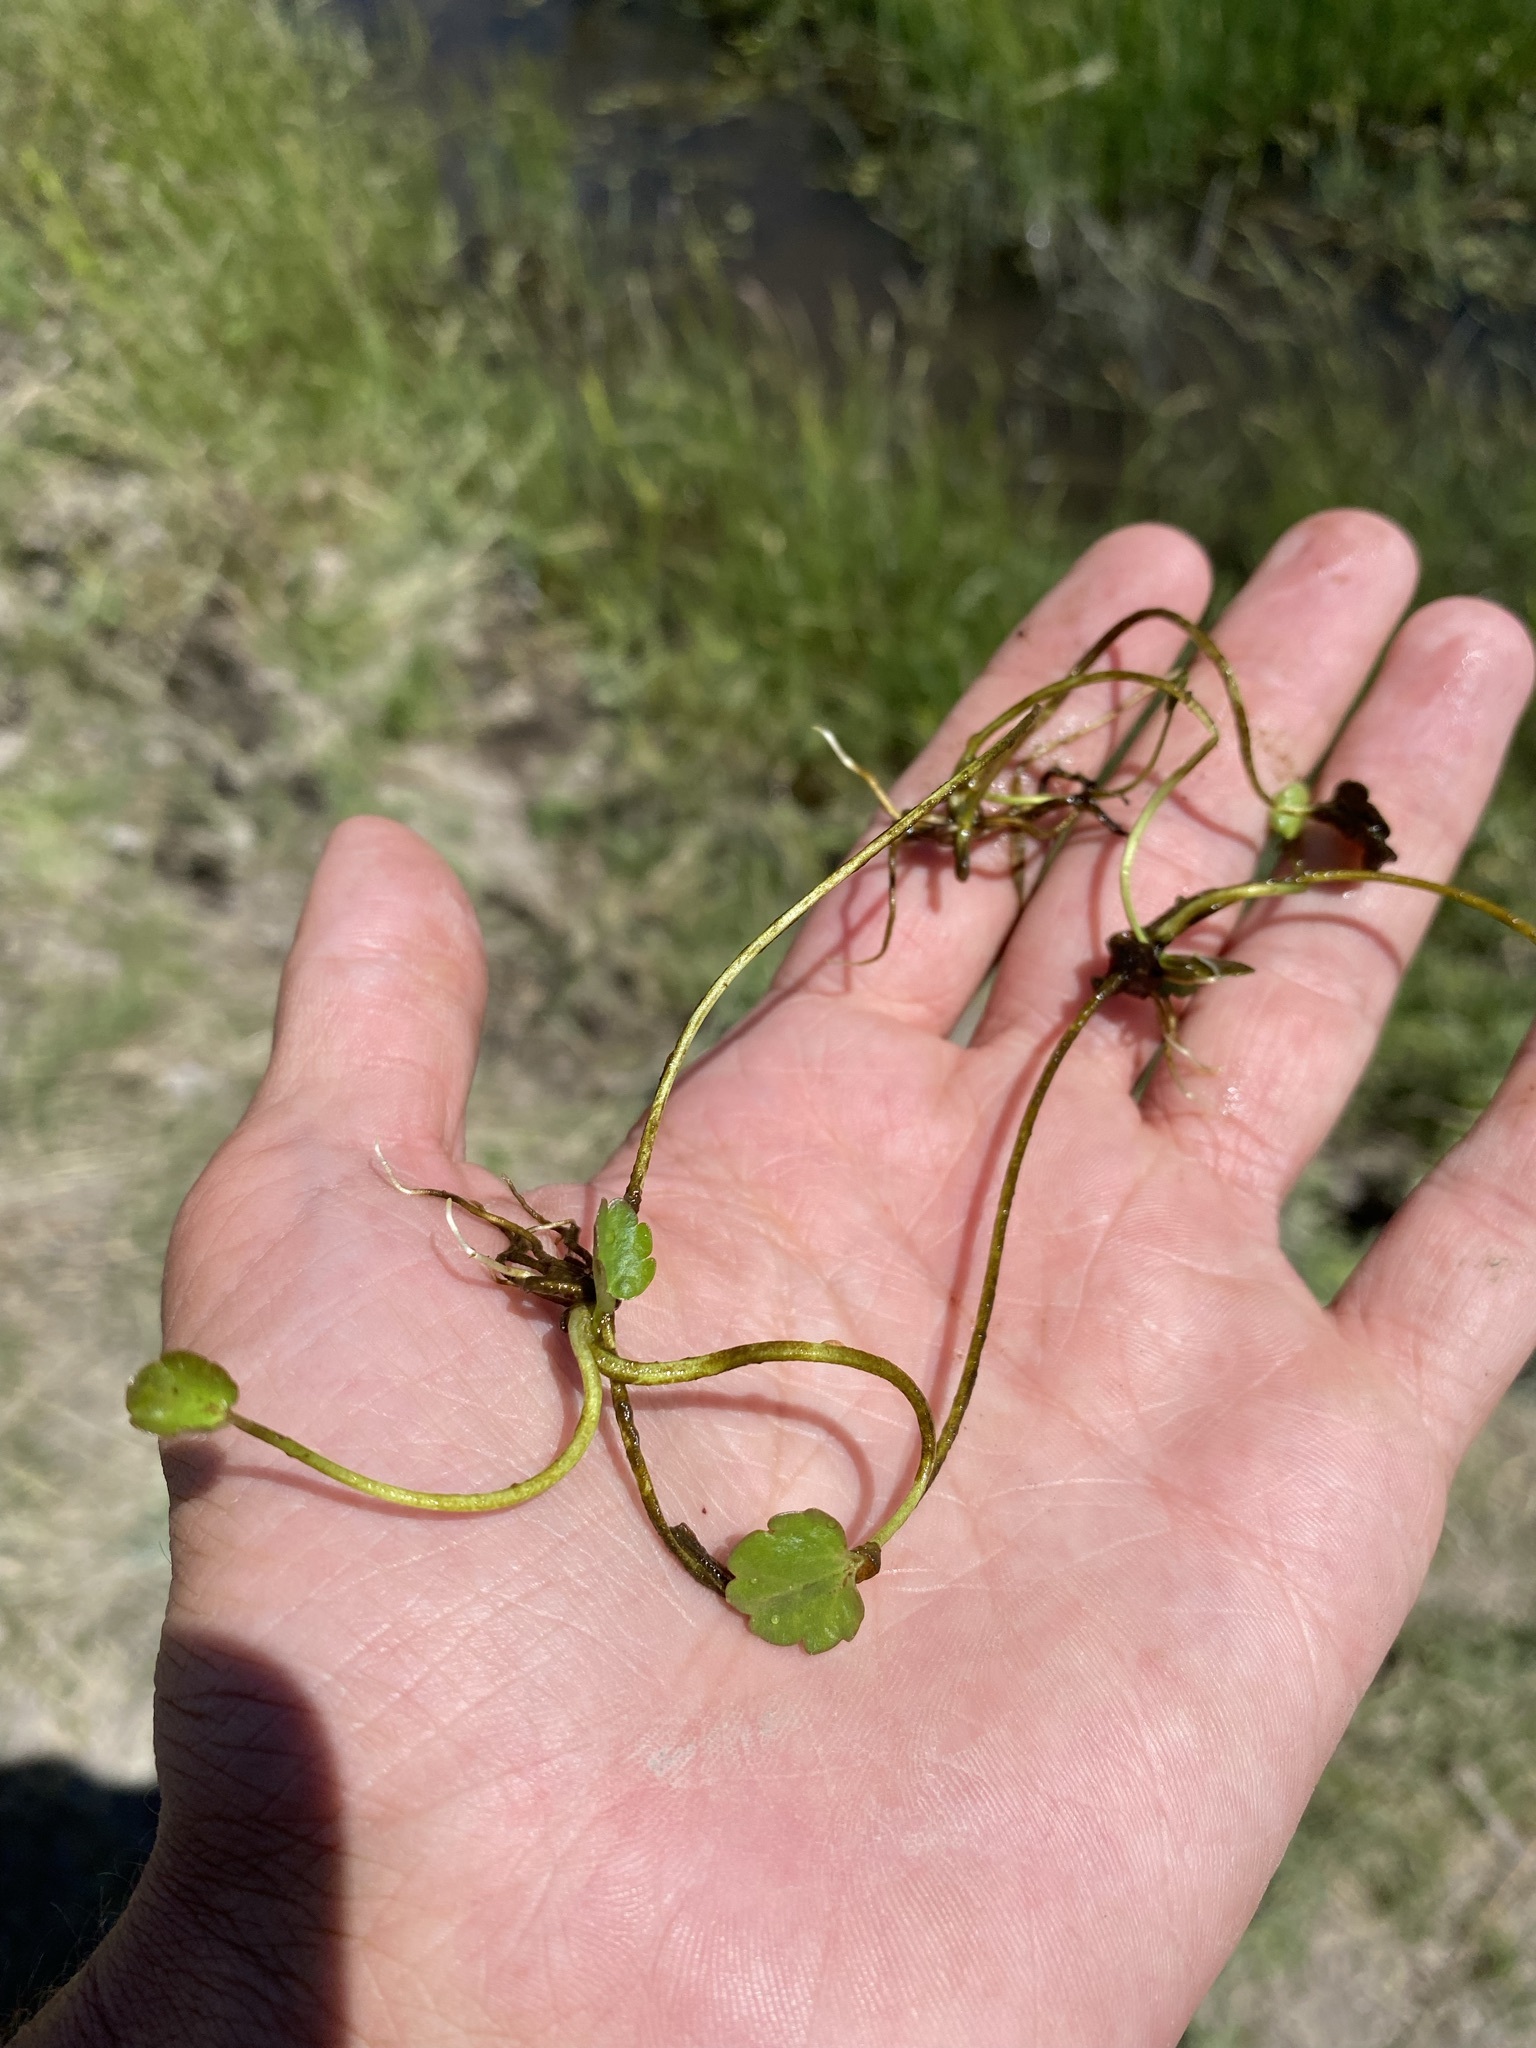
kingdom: Plantae
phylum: Tracheophyta
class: Magnoliopsida
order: Ranunculales
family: Ranunculaceae
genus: Halerpestes
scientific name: Halerpestes cymbalaria
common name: Seaside crowfoot
